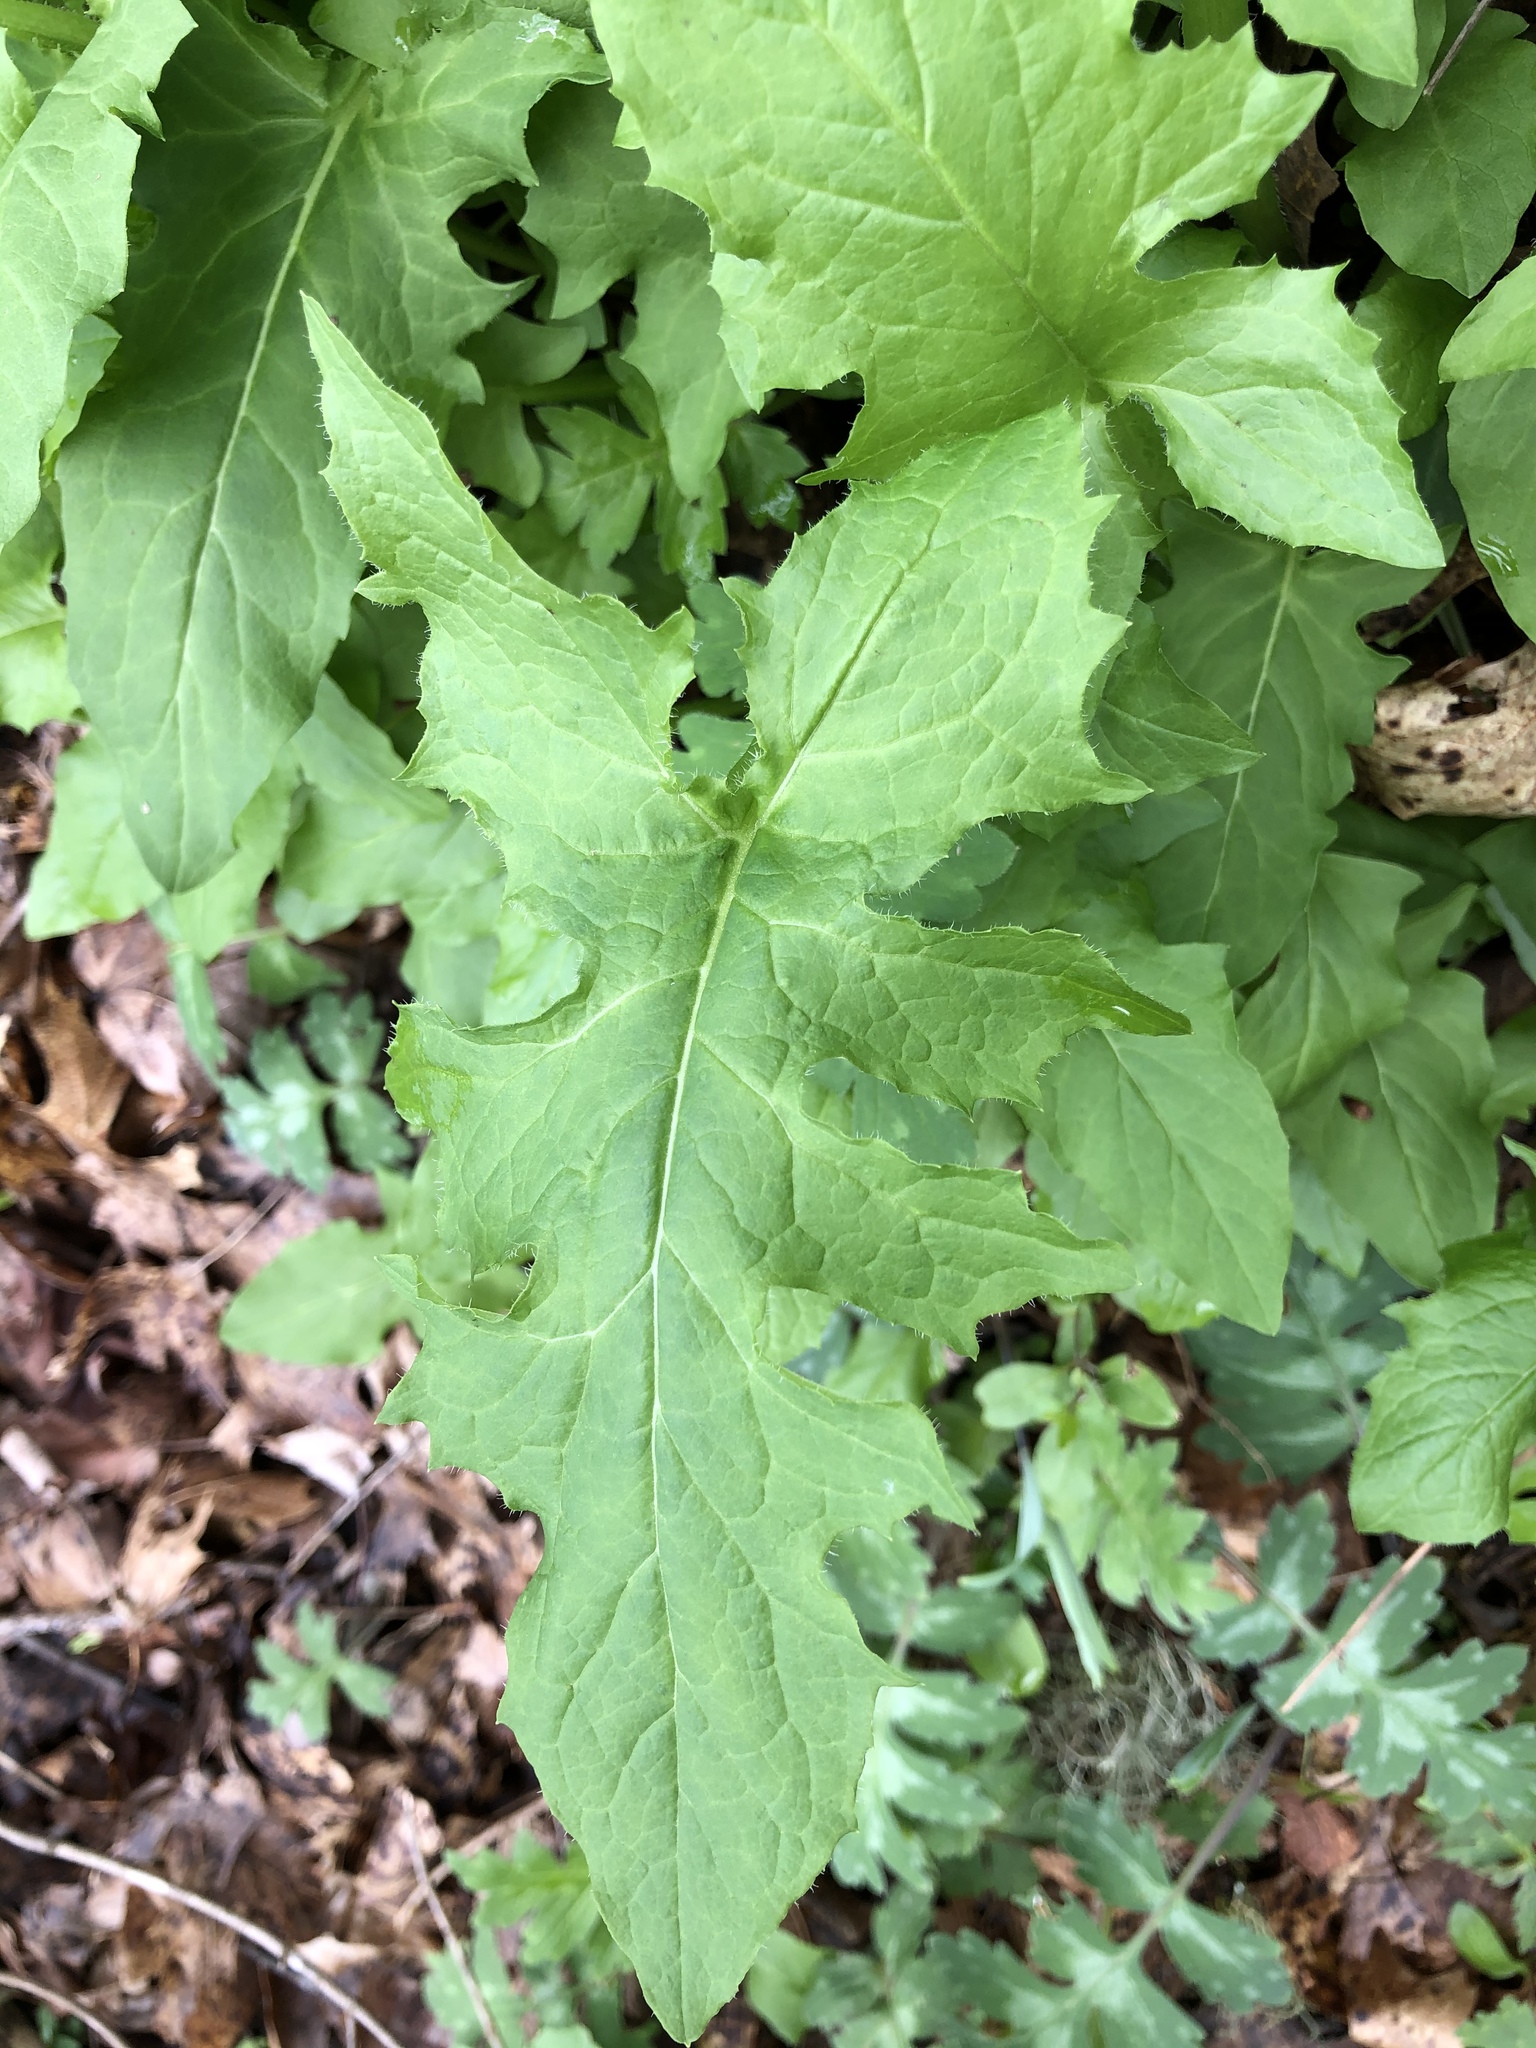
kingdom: Plantae
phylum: Tracheophyta
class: Magnoliopsida
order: Asterales
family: Asteraceae
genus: Nabalus
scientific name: Nabalus albus
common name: White rattlesnakeroot
